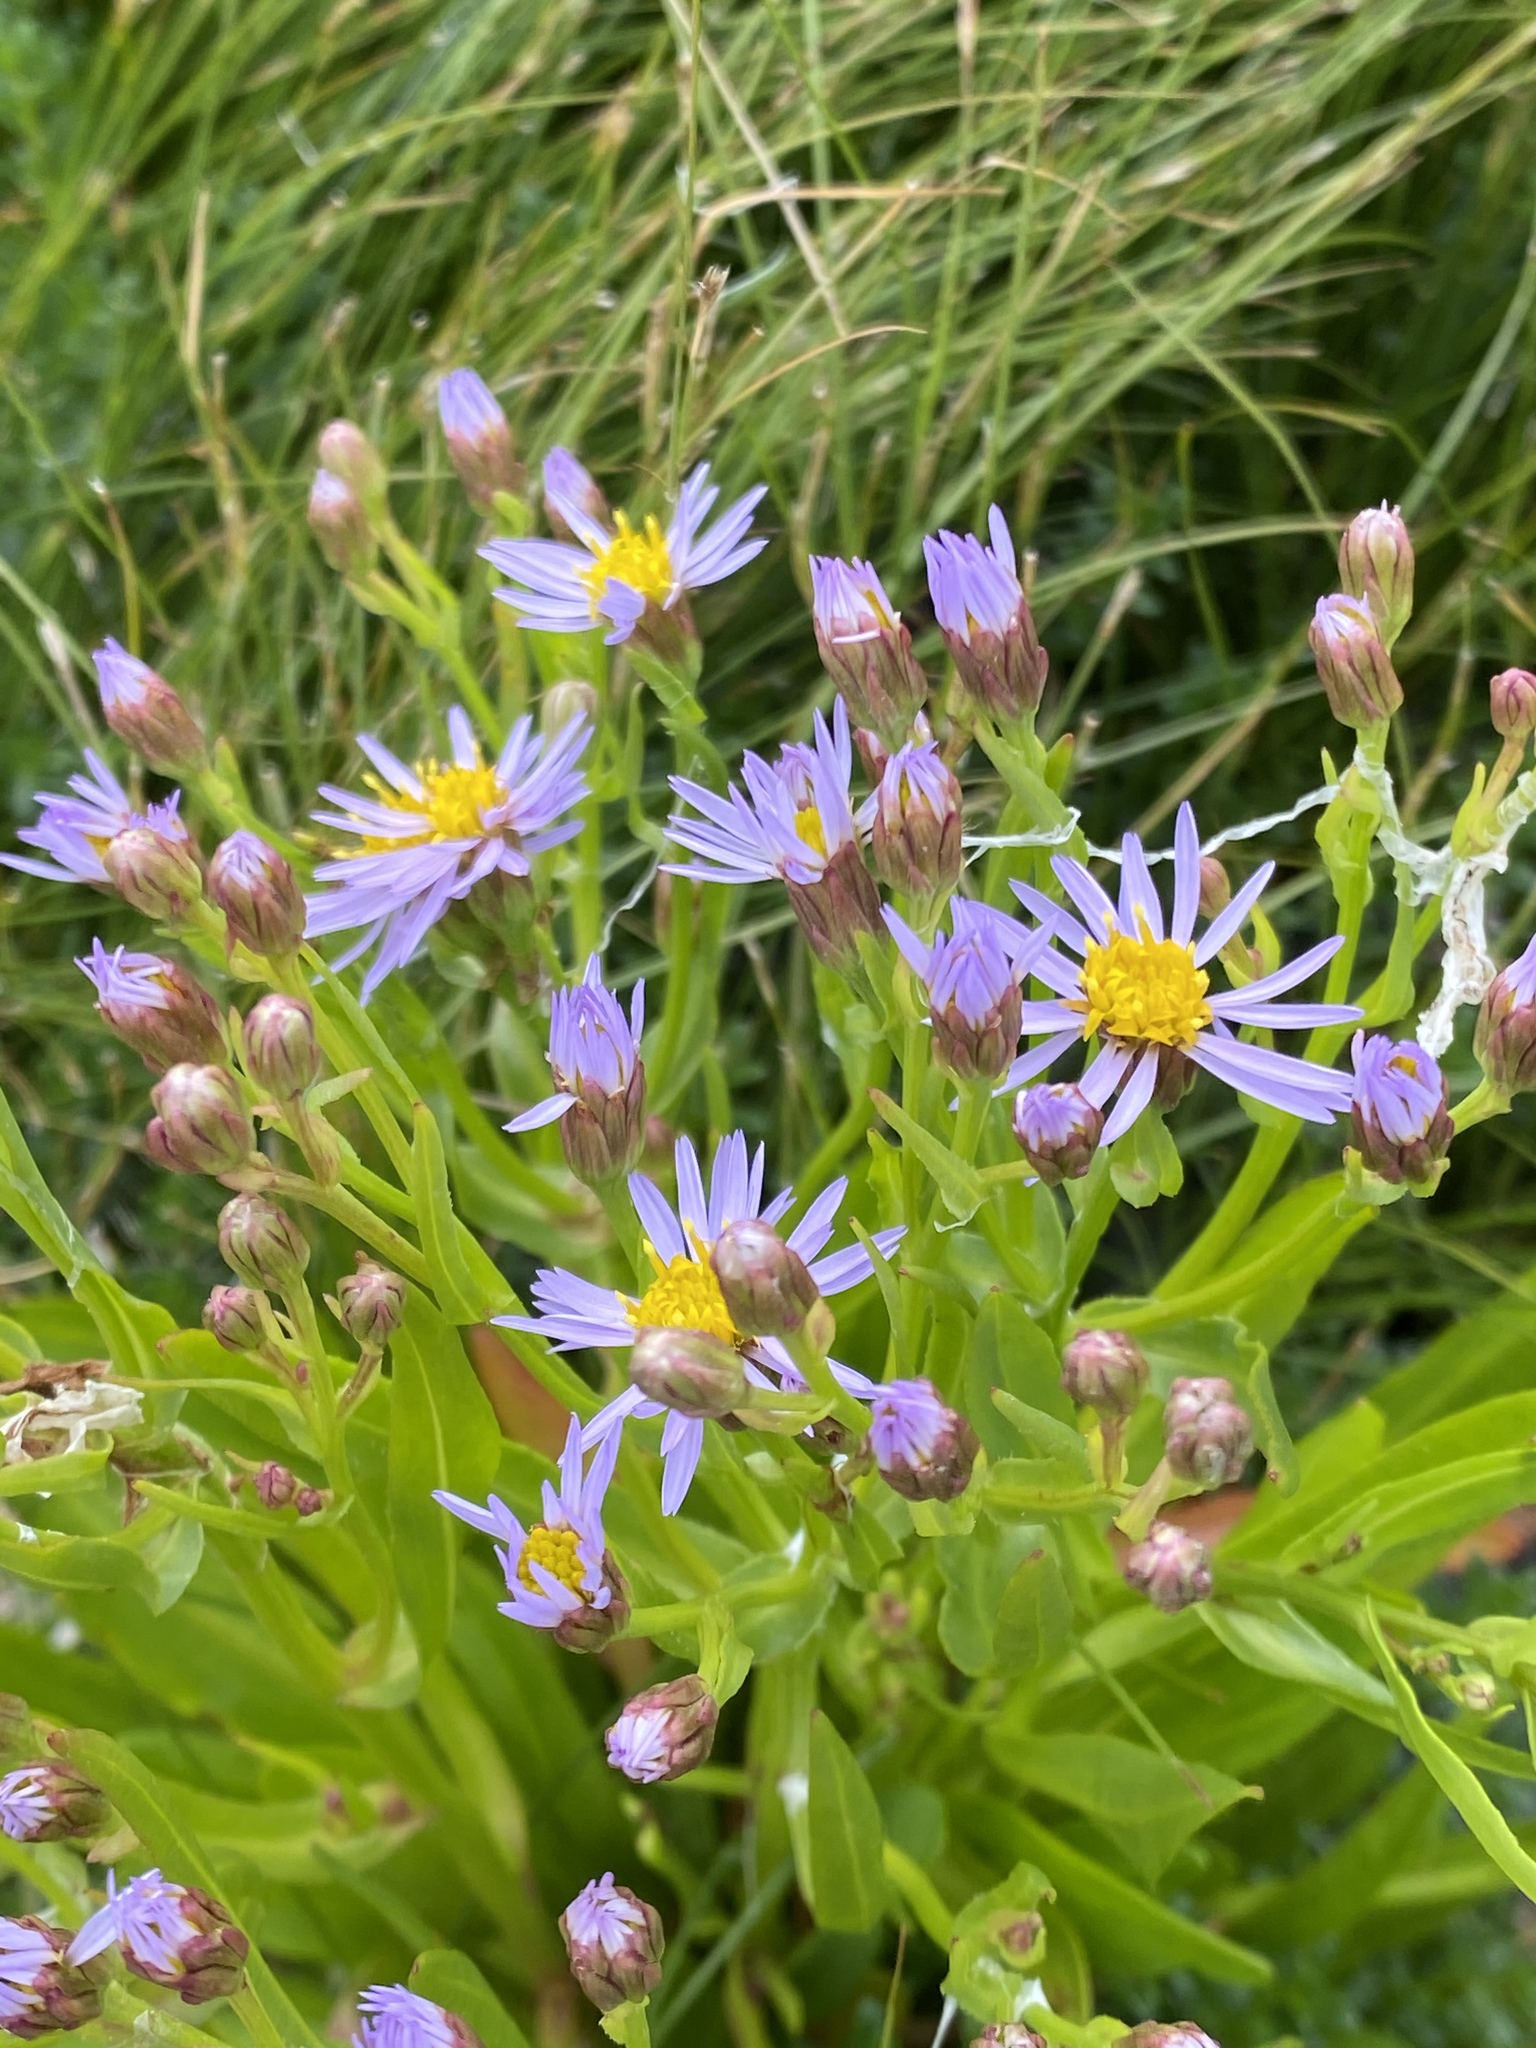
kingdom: Plantae
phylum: Tracheophyta
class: Magnoliopsida
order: Asterales
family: Asteraceae
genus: Tripolium
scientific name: Tripolium pannonicum
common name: Sea aster
